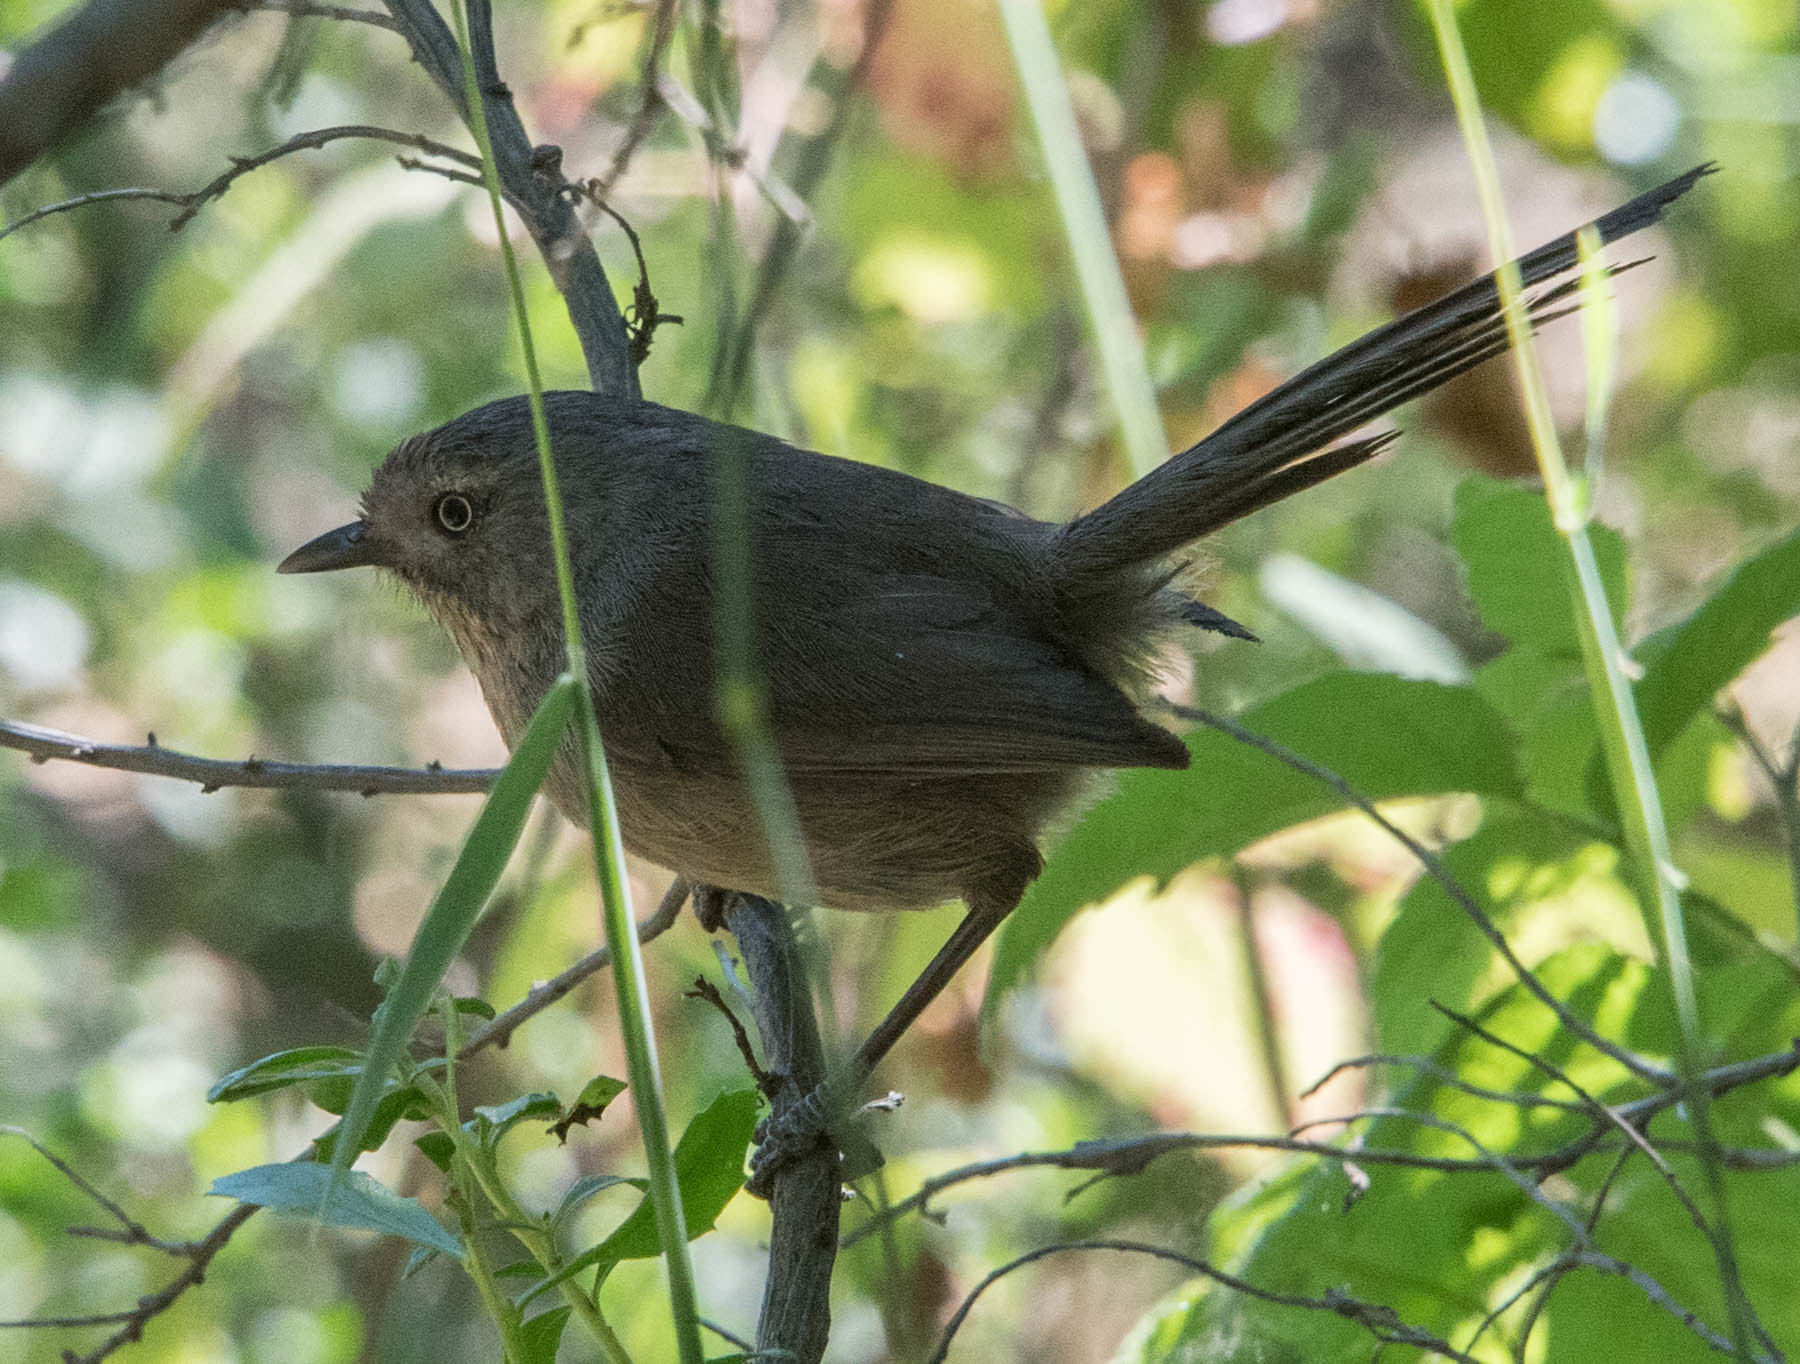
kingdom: Animalia
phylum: Chordata
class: Aves
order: Passeriformes
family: Sylviidae
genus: Chamaea
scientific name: Chamaea fasciata
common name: Wrentit
